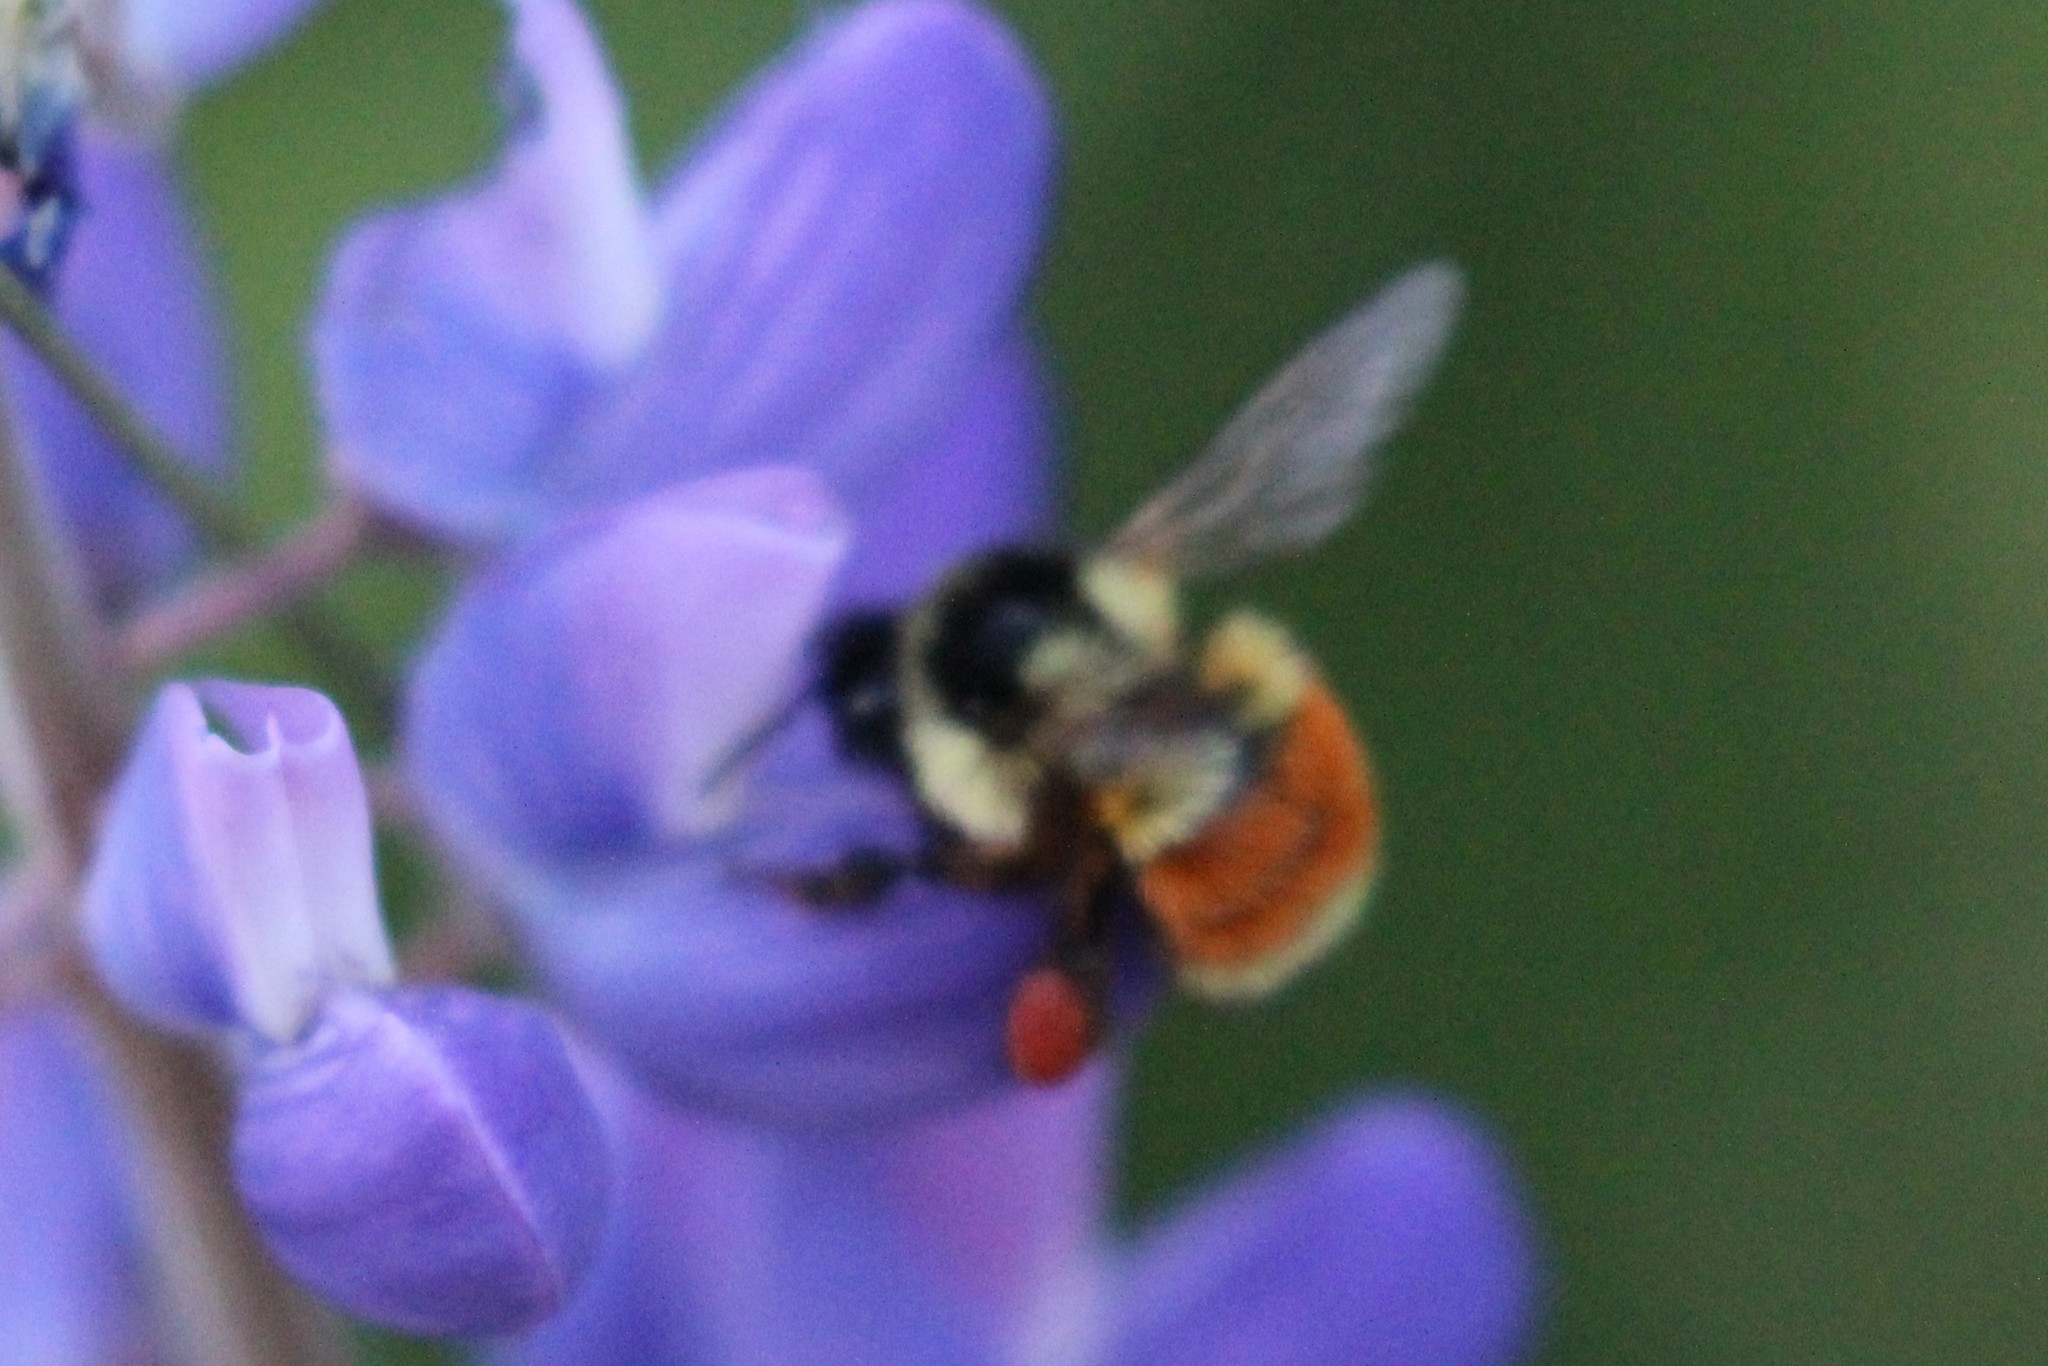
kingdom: Animalia
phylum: Arthropoda
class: Insecta
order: Hymenoptera
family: Apidae
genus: Bombus
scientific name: Bombus ternarius
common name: Tri-colored bumble bee
